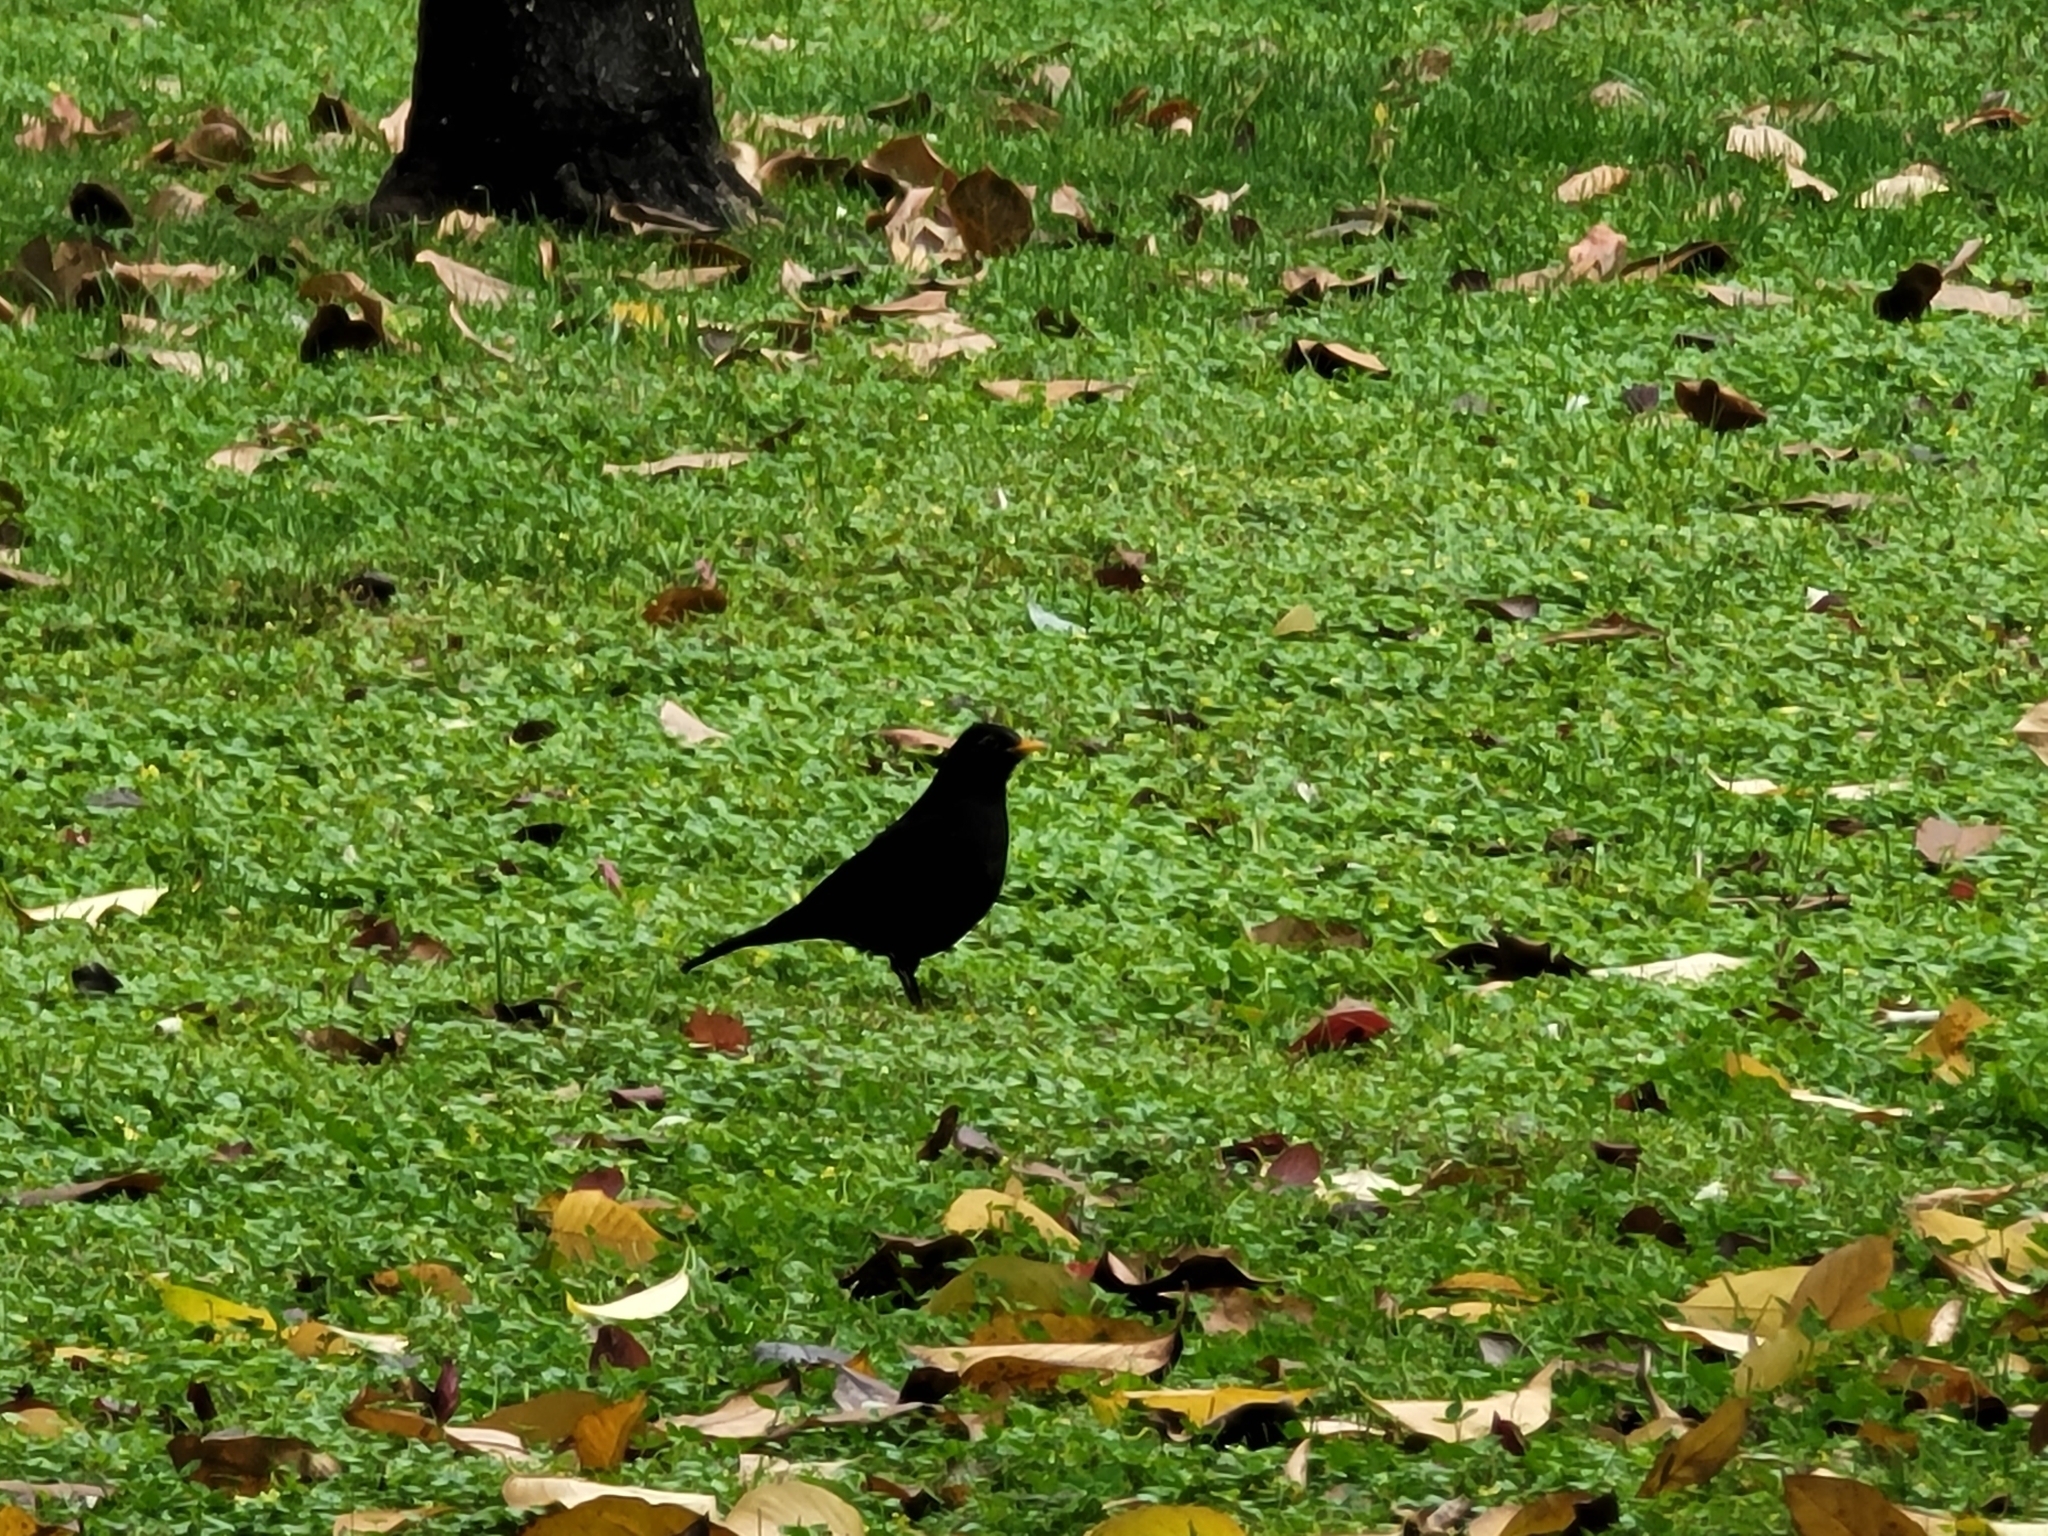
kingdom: Animalia
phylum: Chordata
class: Aves
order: Passeriformes
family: Turdidae
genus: Turdus
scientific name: Turdus mandarinus
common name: Chinese blackbird
